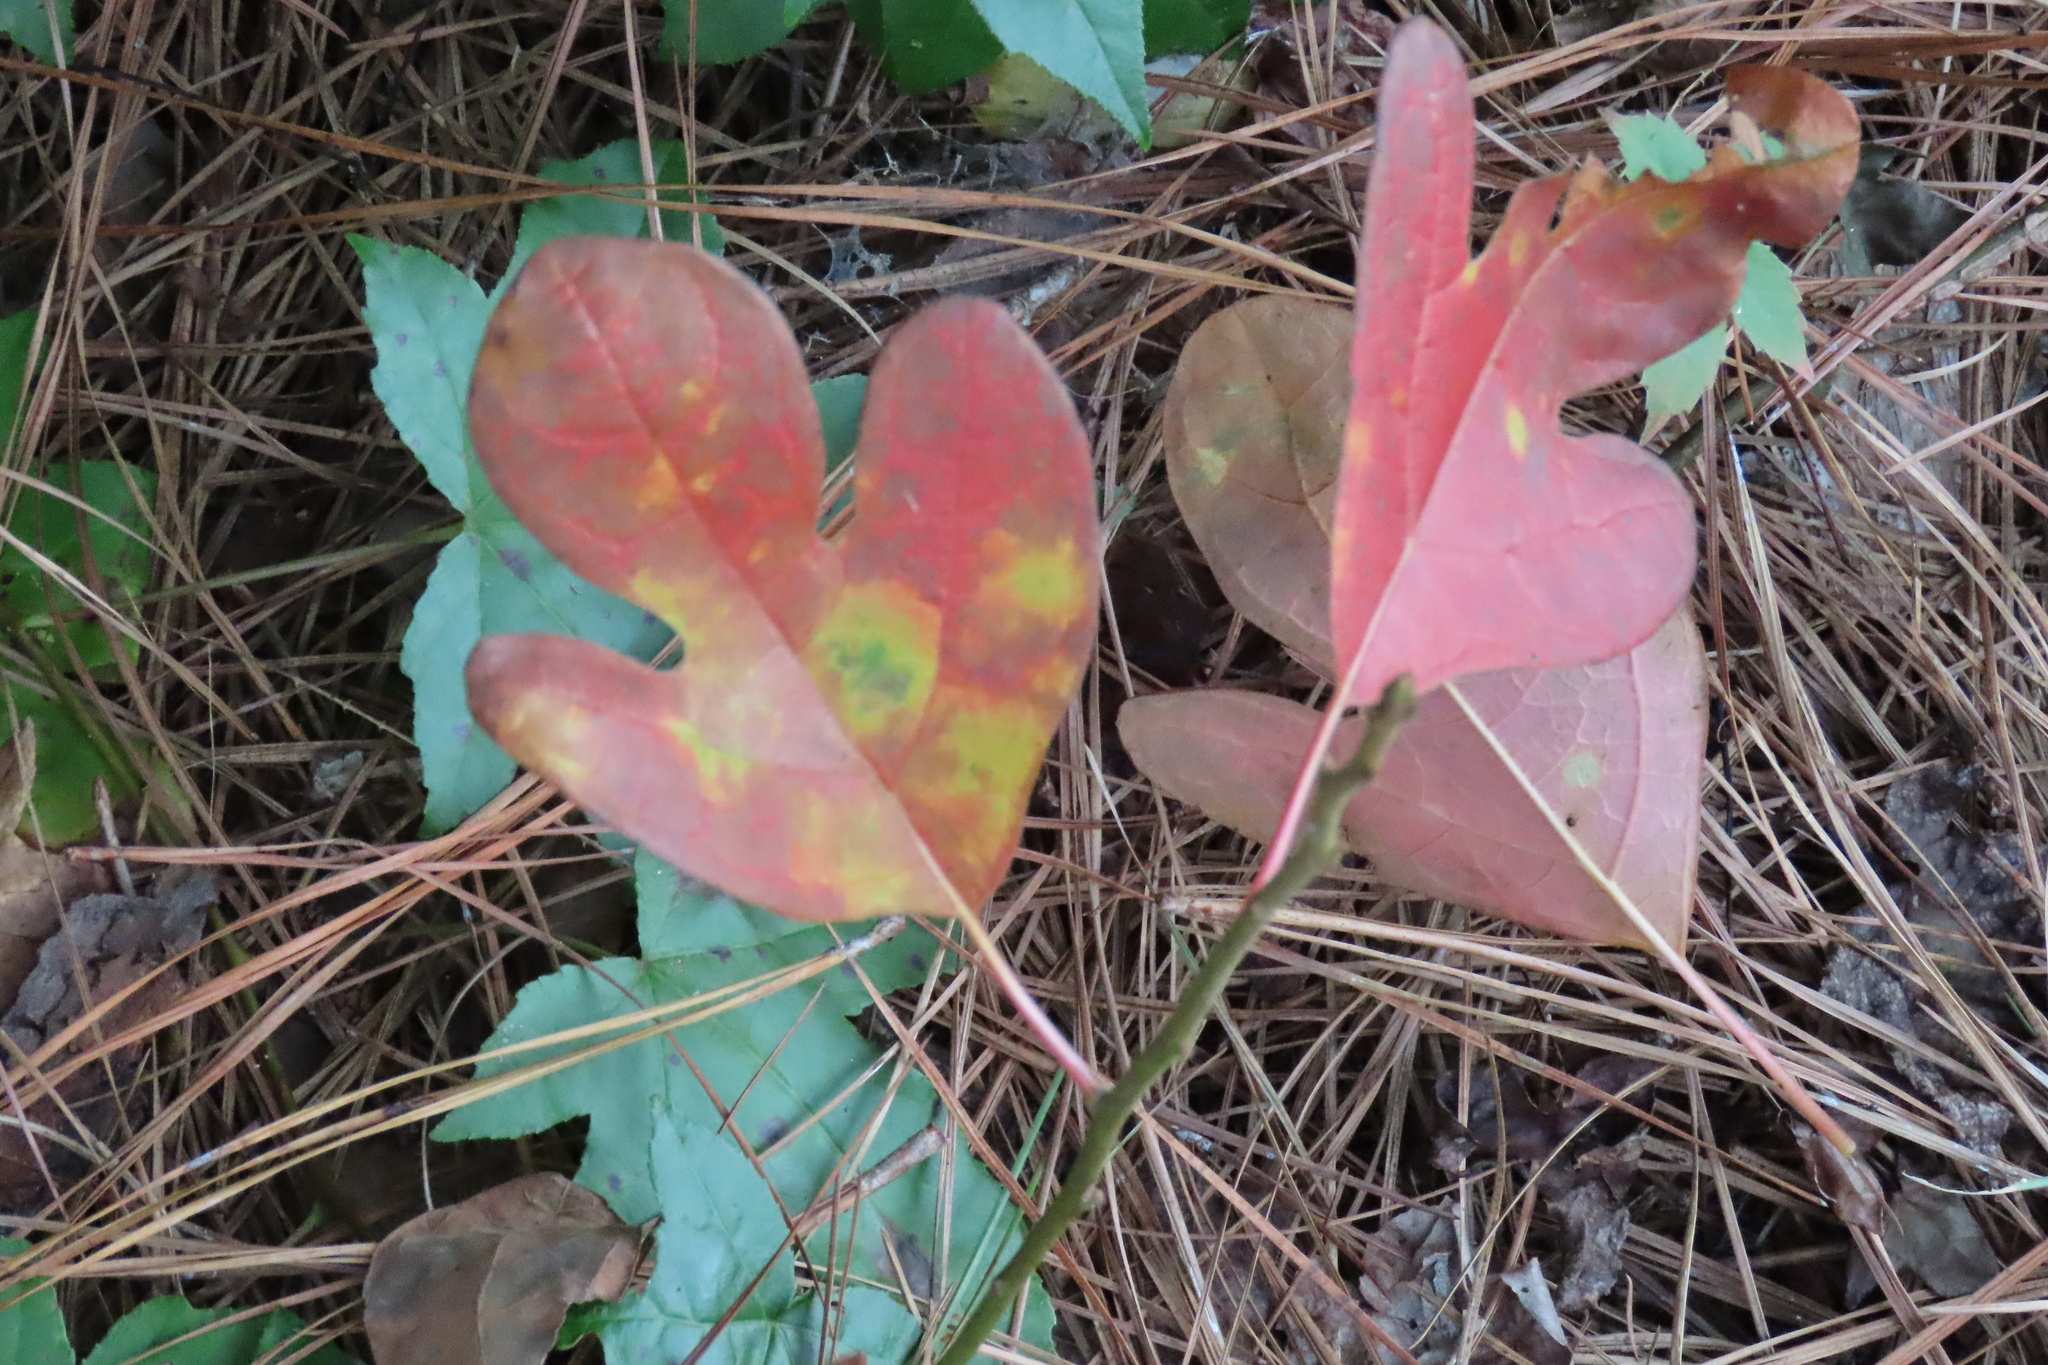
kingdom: Plantae
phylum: Tracheophyta
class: Magnoliopsida
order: Laurales
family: Lauraceae
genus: Sassafras
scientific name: Sassafras albidum
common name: Sassafras
